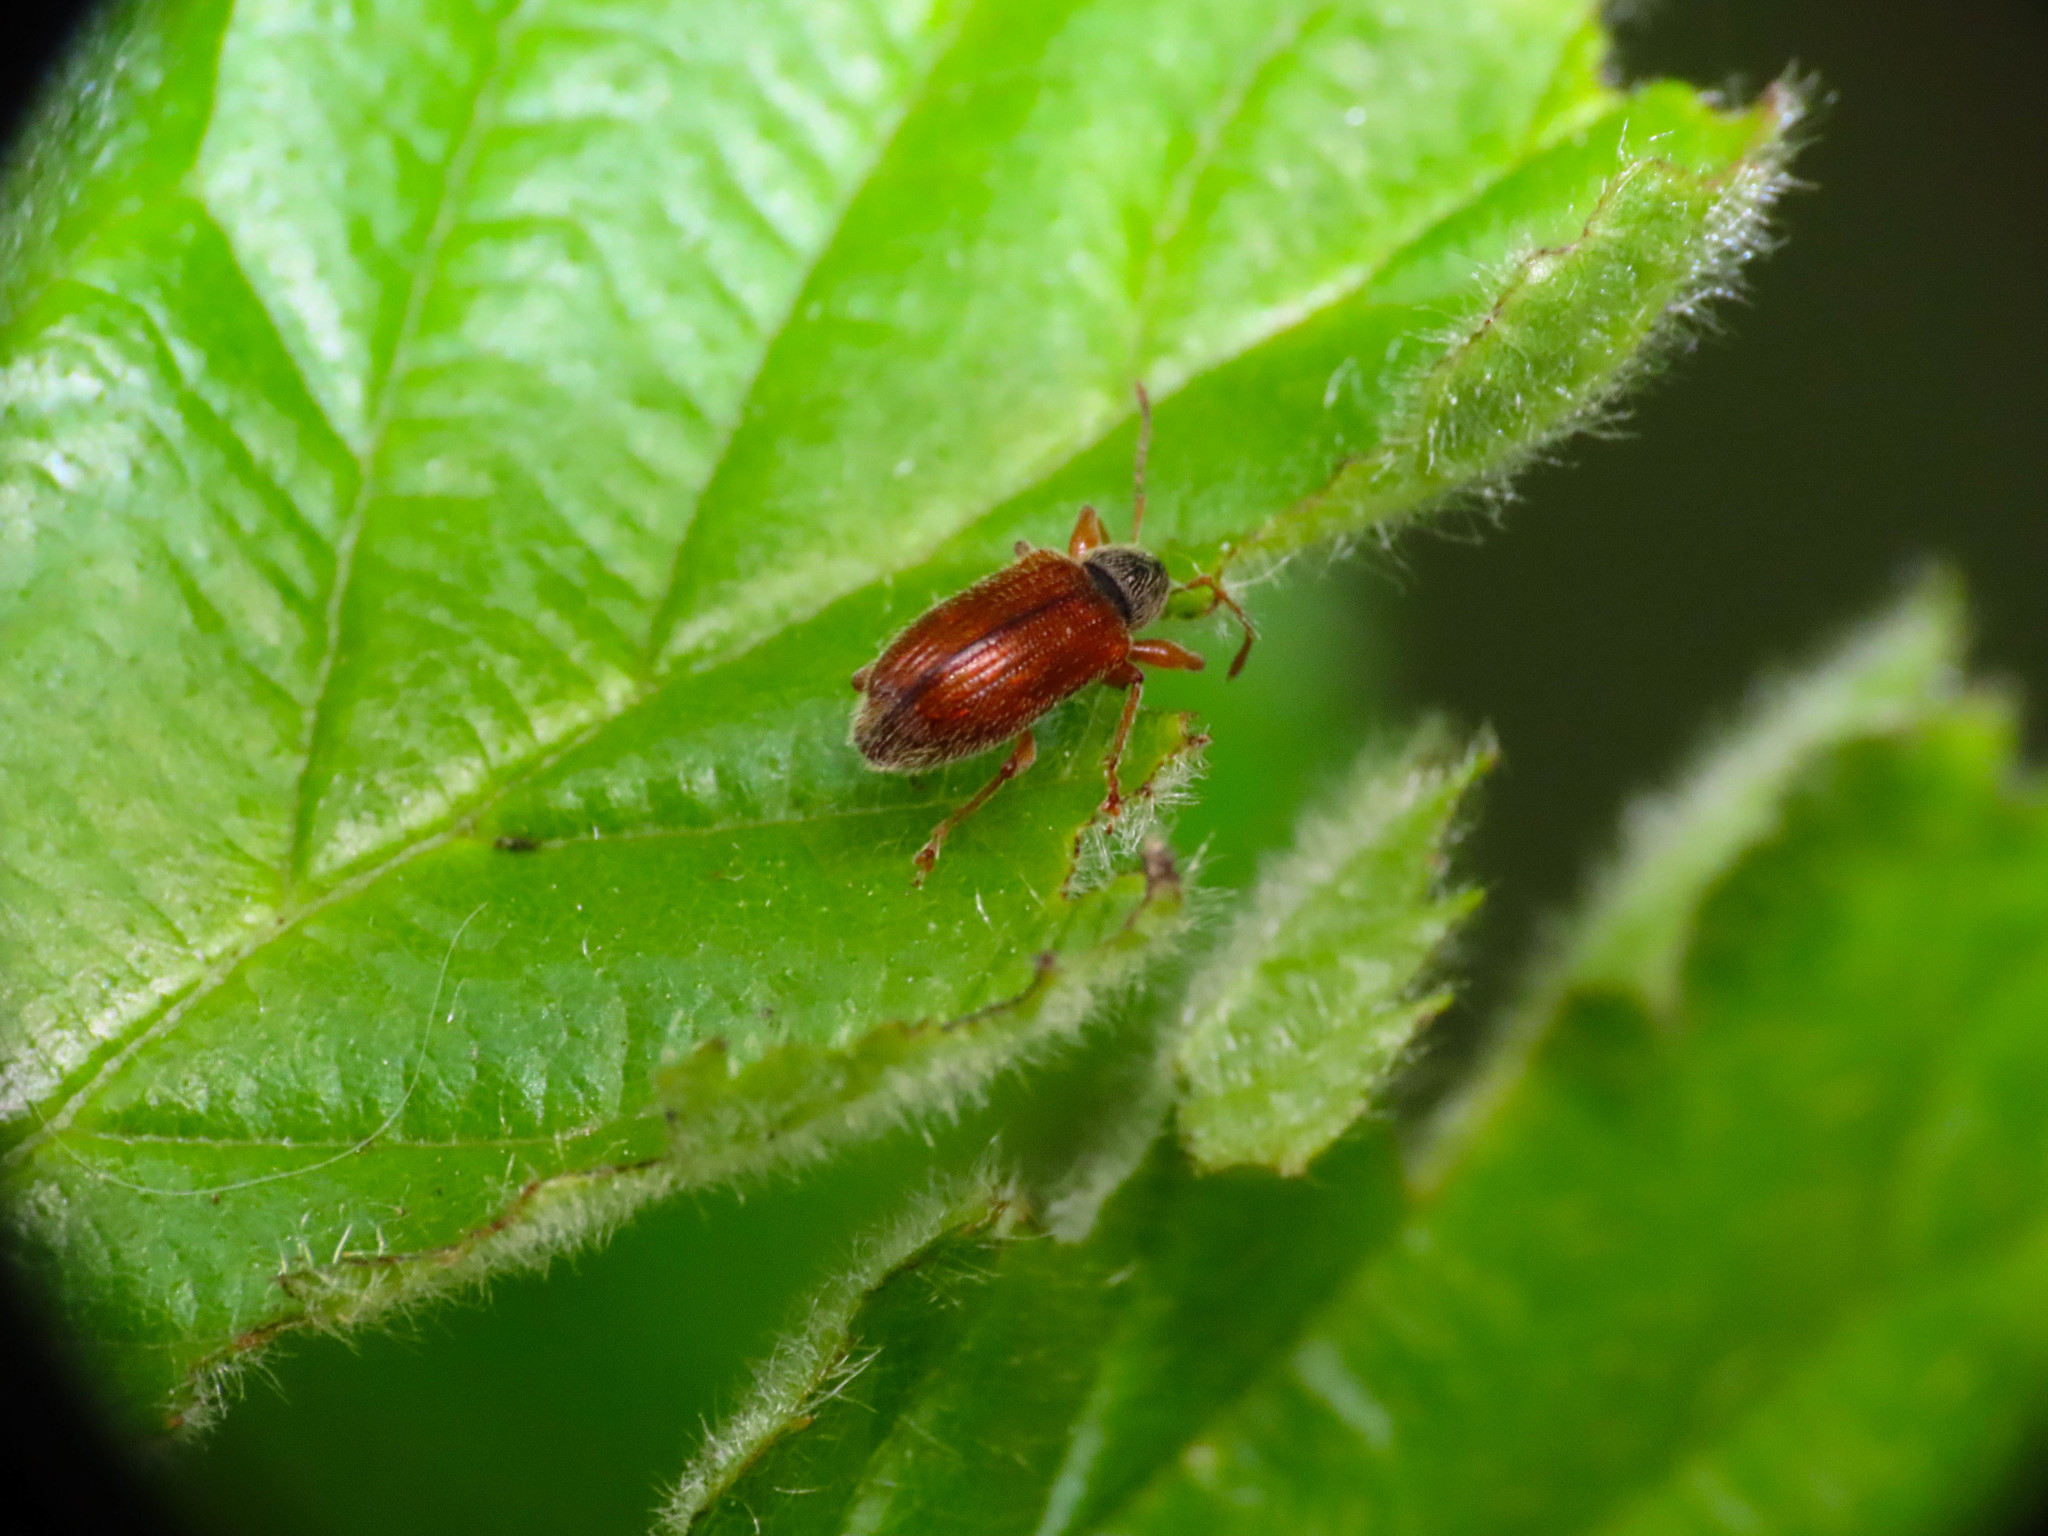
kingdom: Animalia
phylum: Arthropoda
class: Insecta
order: Coleoptera
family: Curculionidae
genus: Phyllobius
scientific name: Phyllobius oblongus
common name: Brown leaf weevil
